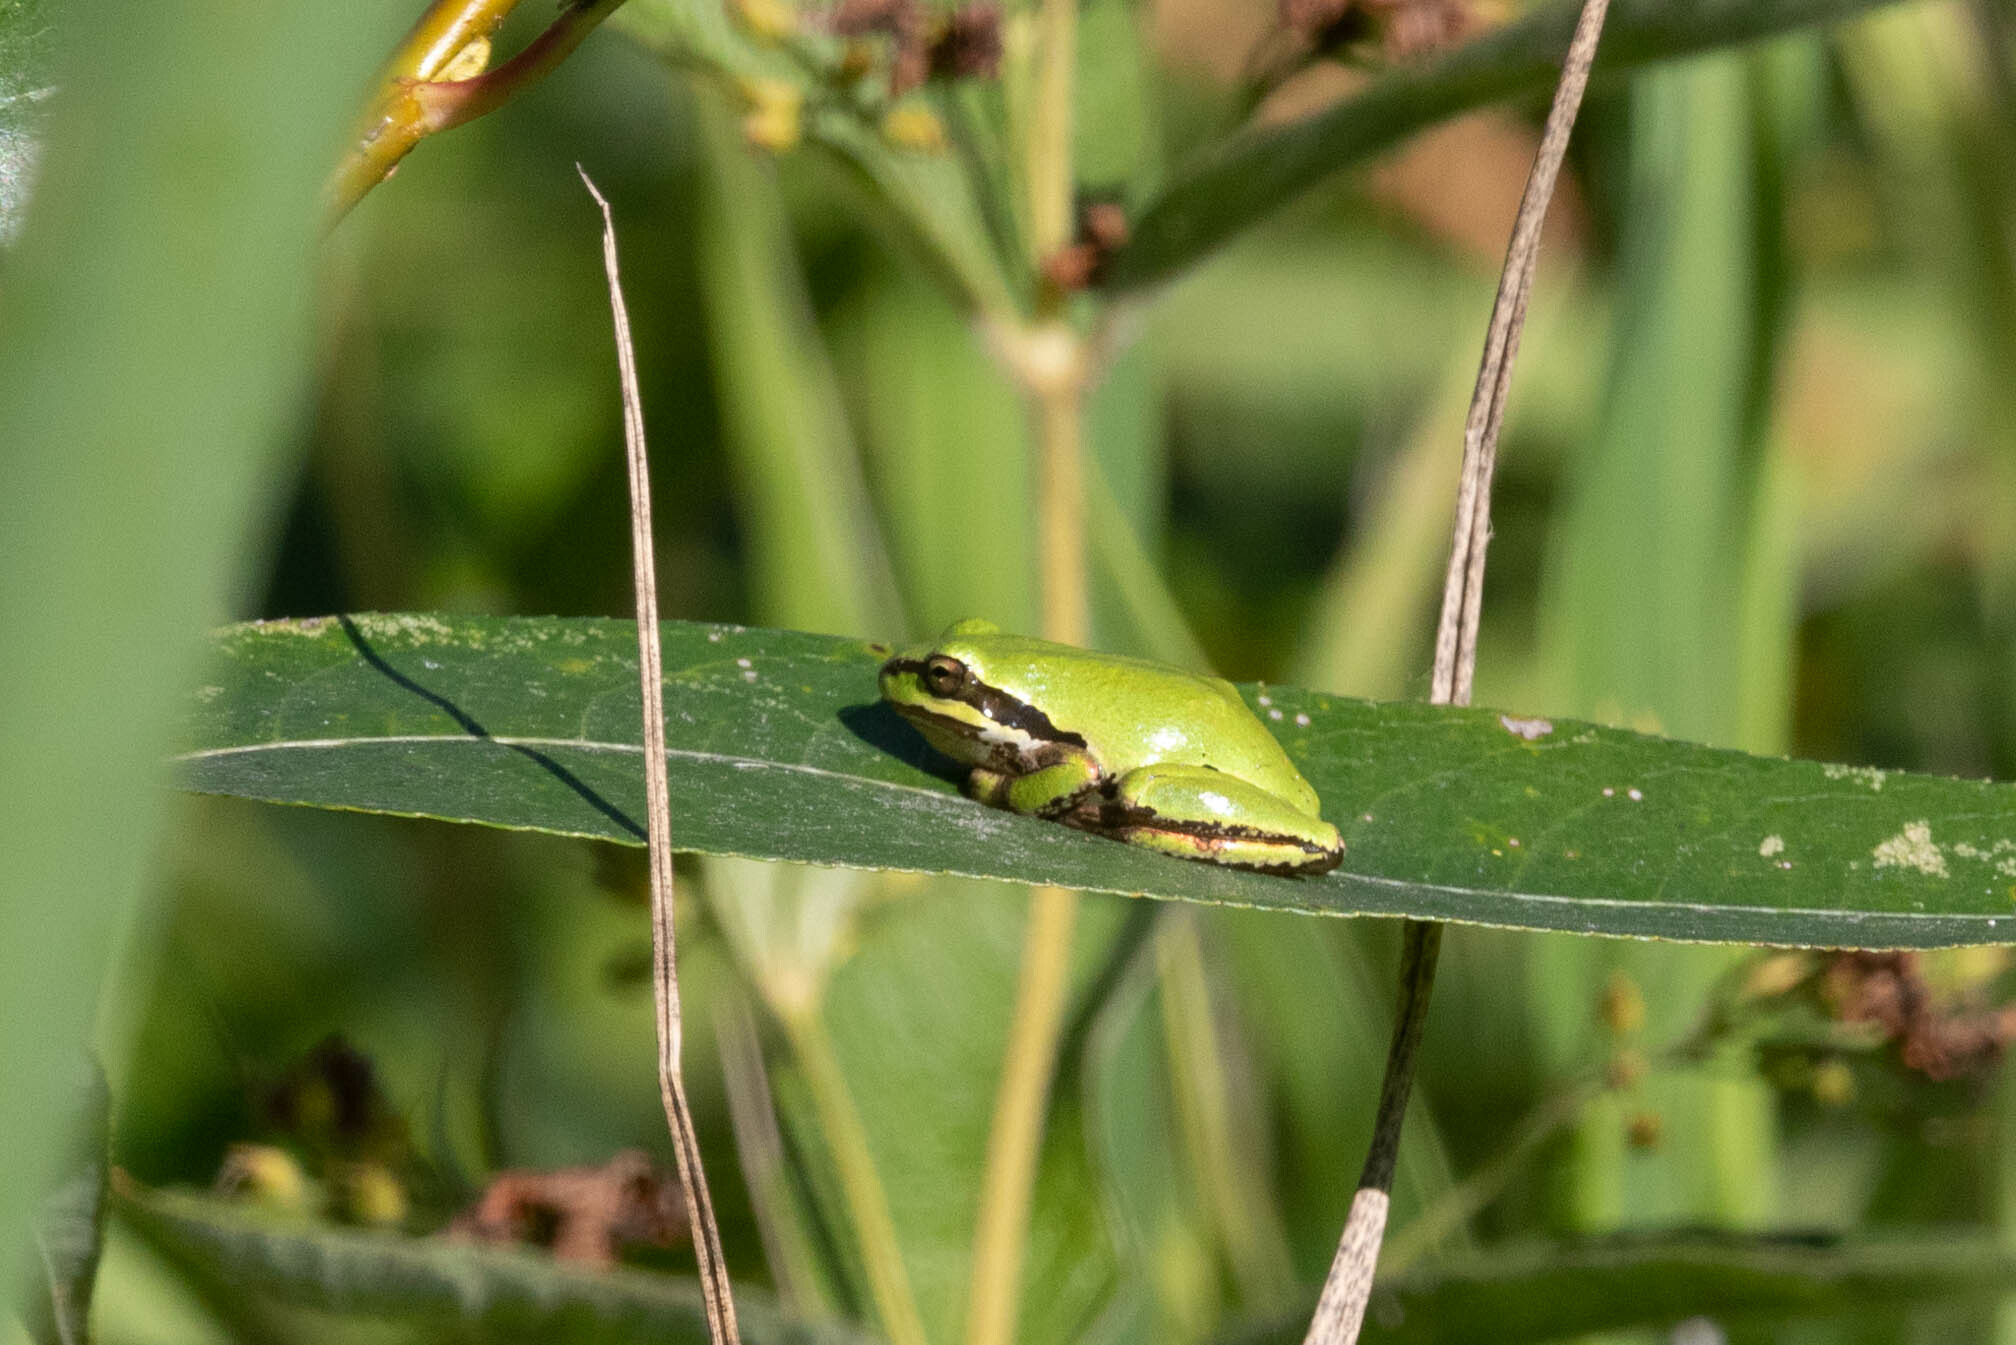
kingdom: Animalia
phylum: Chordata
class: Amphibia
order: Anura
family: Hylidae
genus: Pseudacris
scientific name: Pseudacris regilla
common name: Pacific chorus frog
